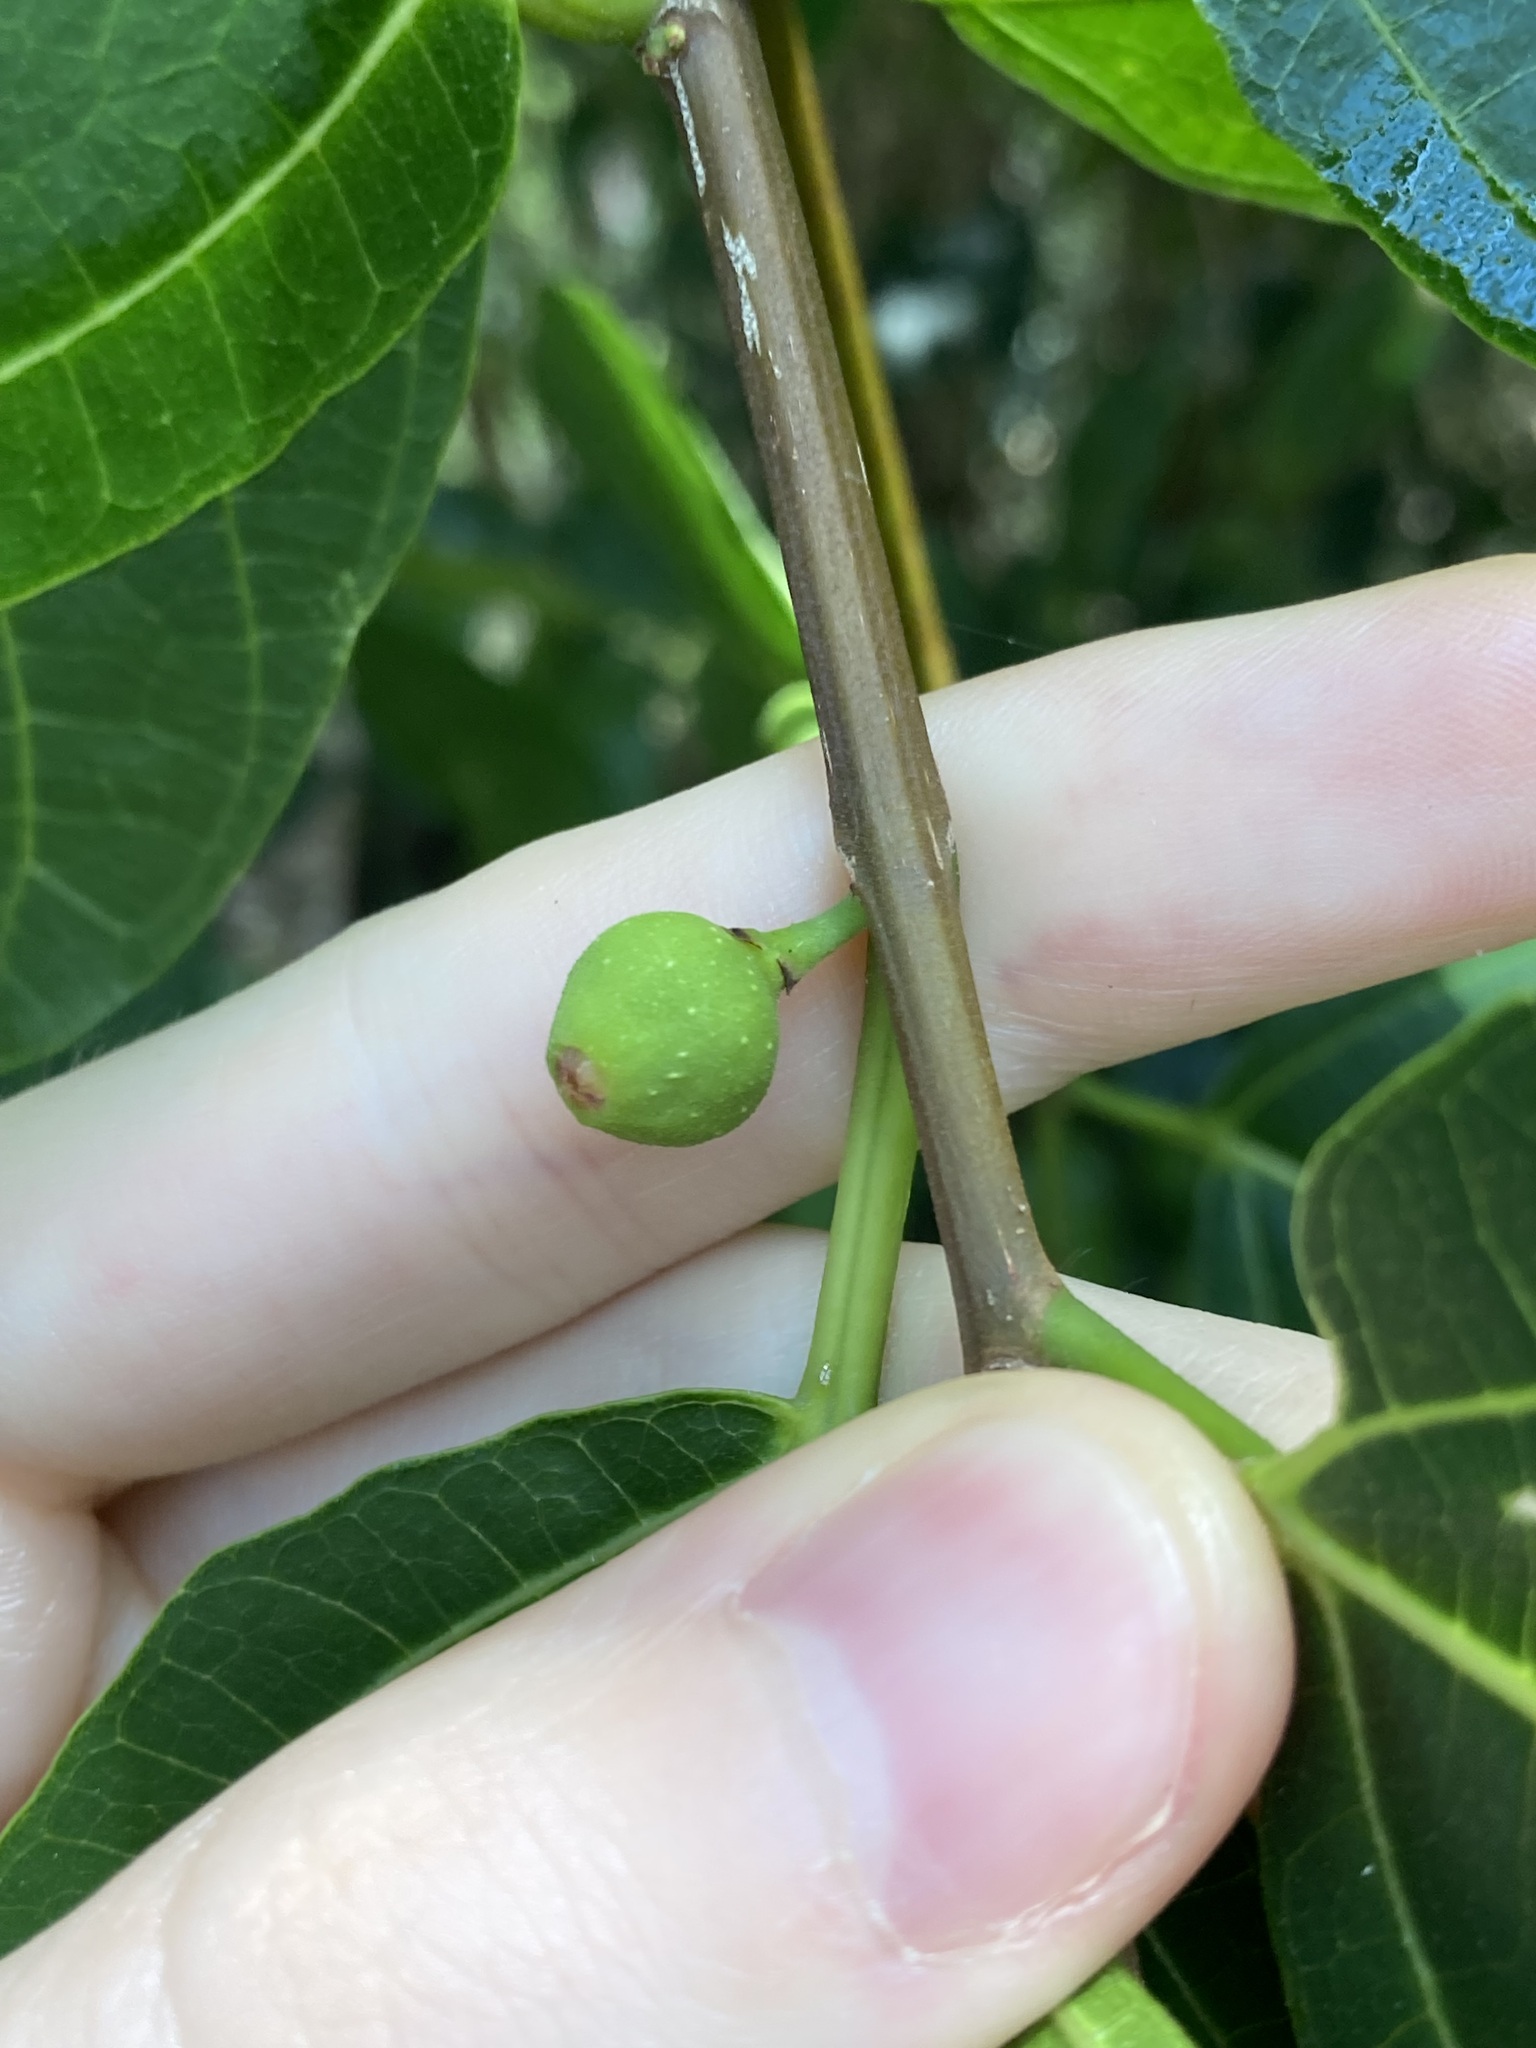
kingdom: Plantae
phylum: Tracheophyta
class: Magnoliopsida
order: Rosales
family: Moraceae
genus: Ficus
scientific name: Ficus fraseri
